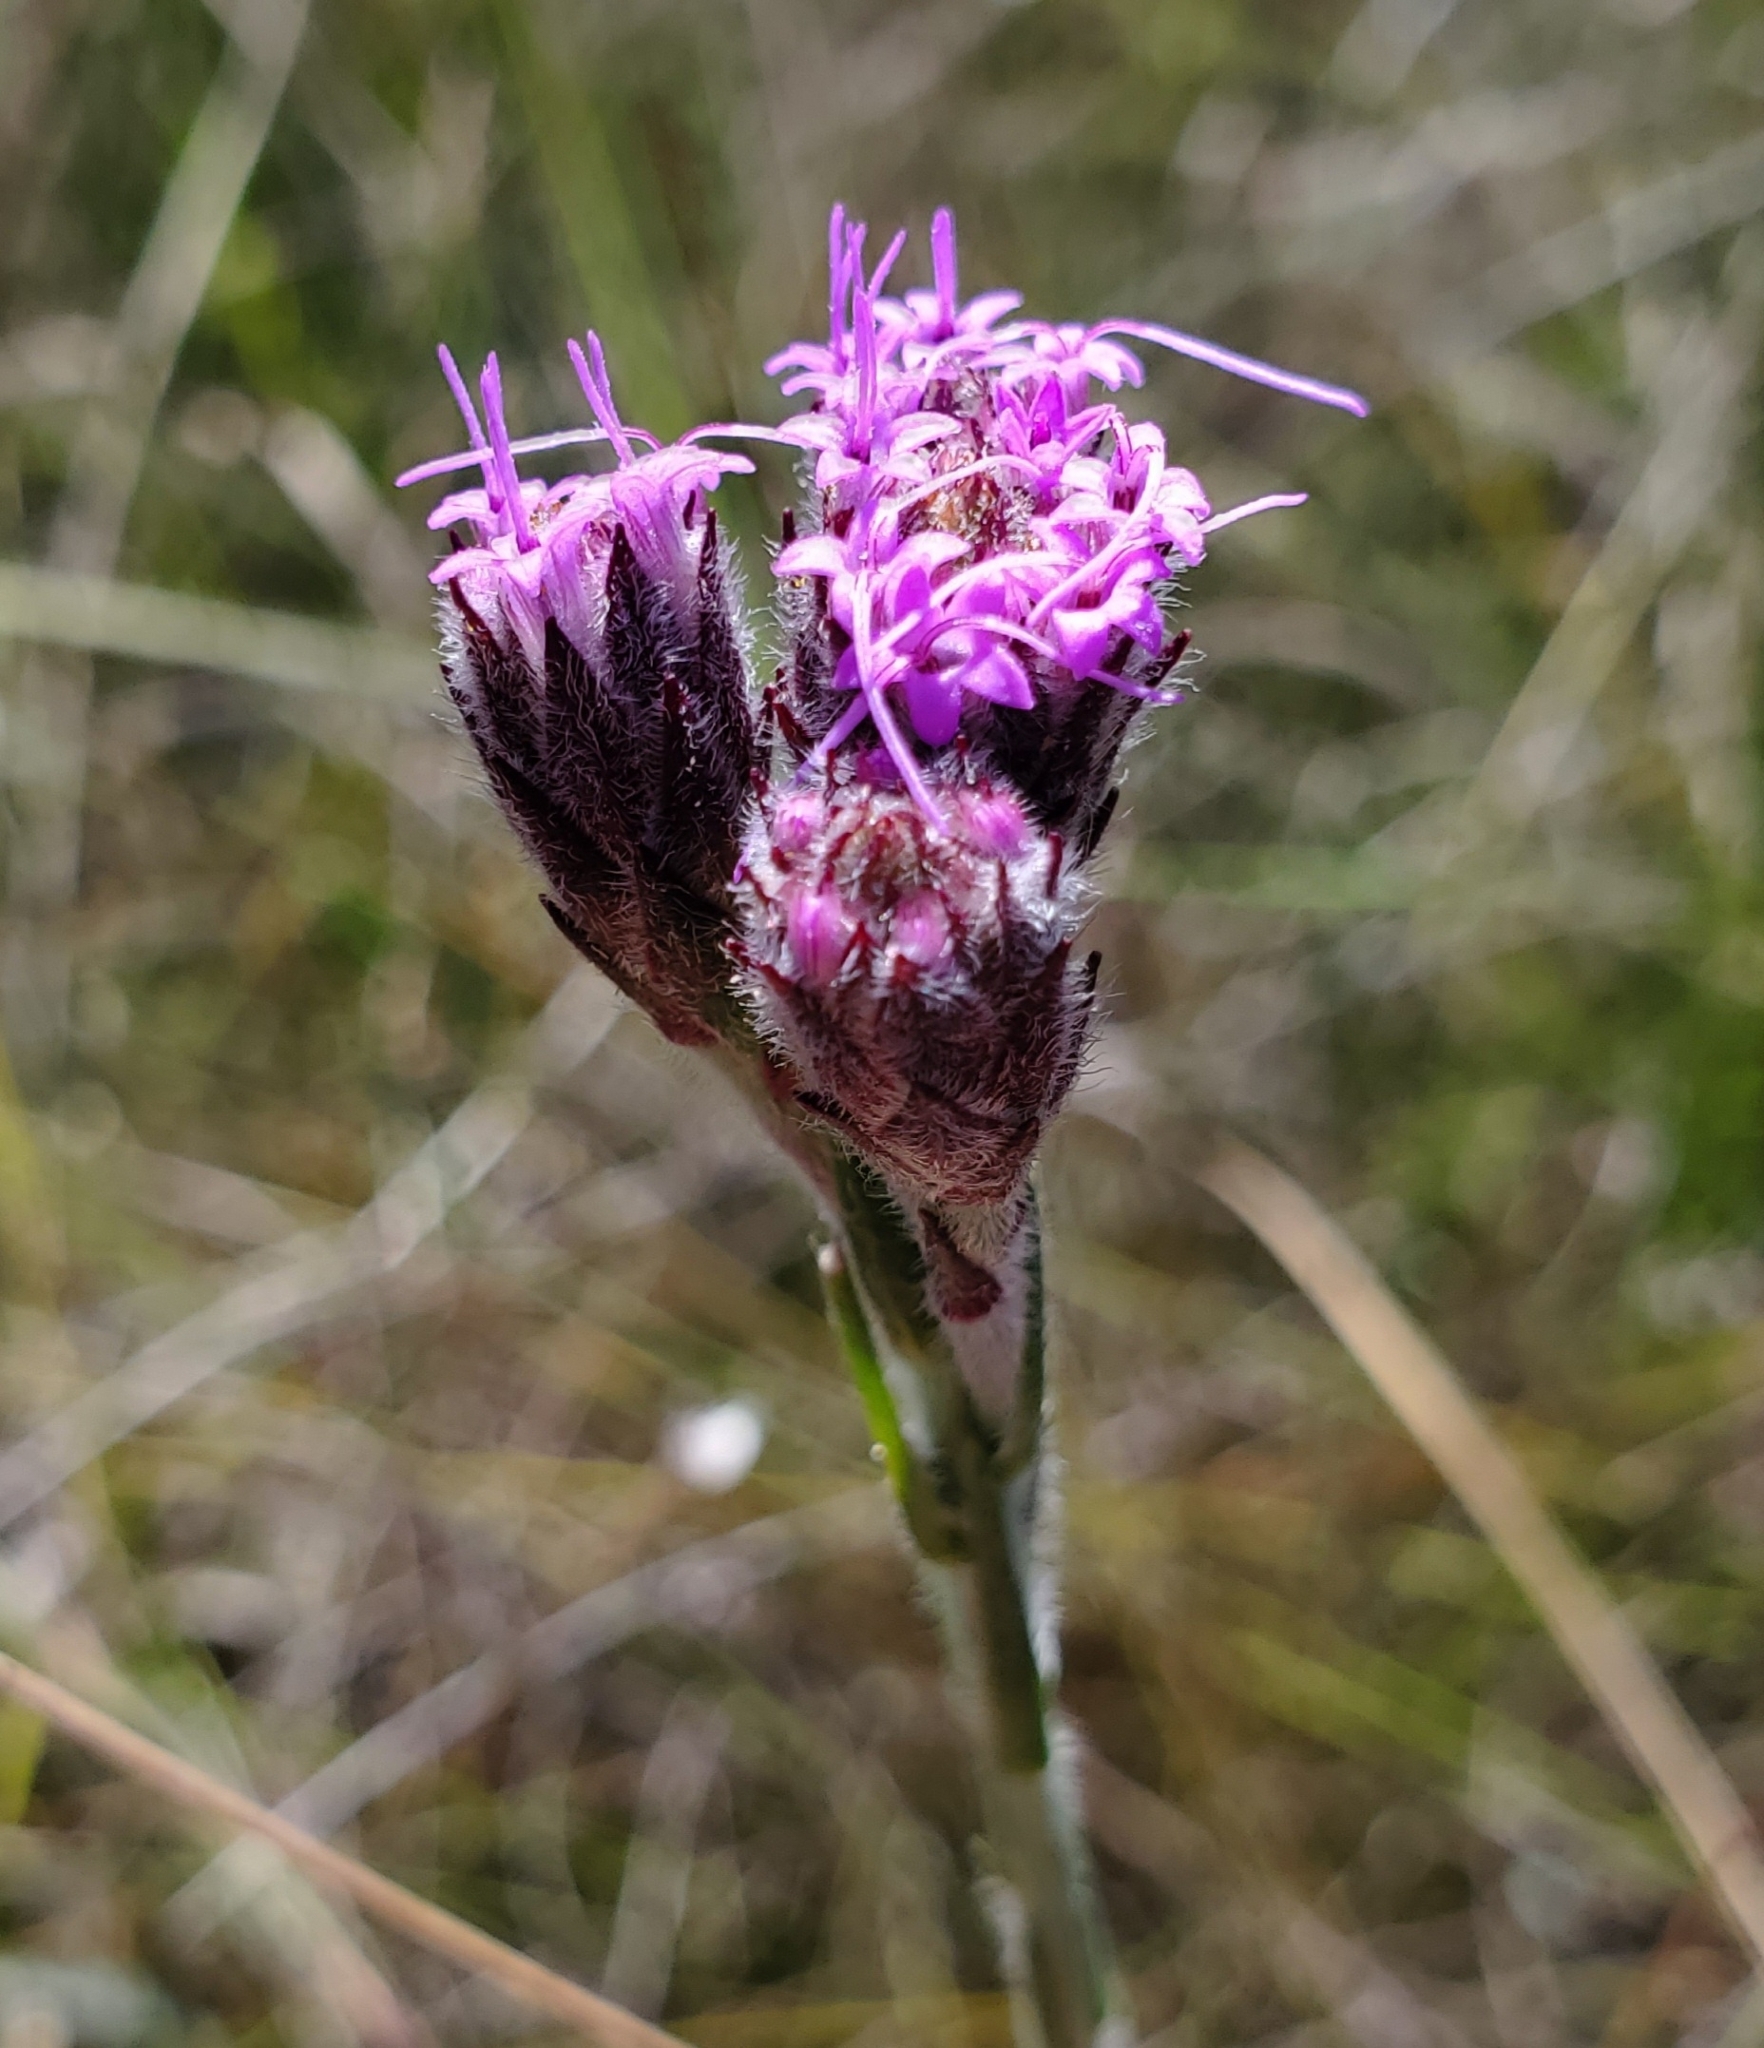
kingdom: Plantae
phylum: Tracheophyta
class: Magnoliopsida
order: Asterales
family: Asteraceae
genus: Carphephorus
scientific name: Carphephorus pseudoliatris
